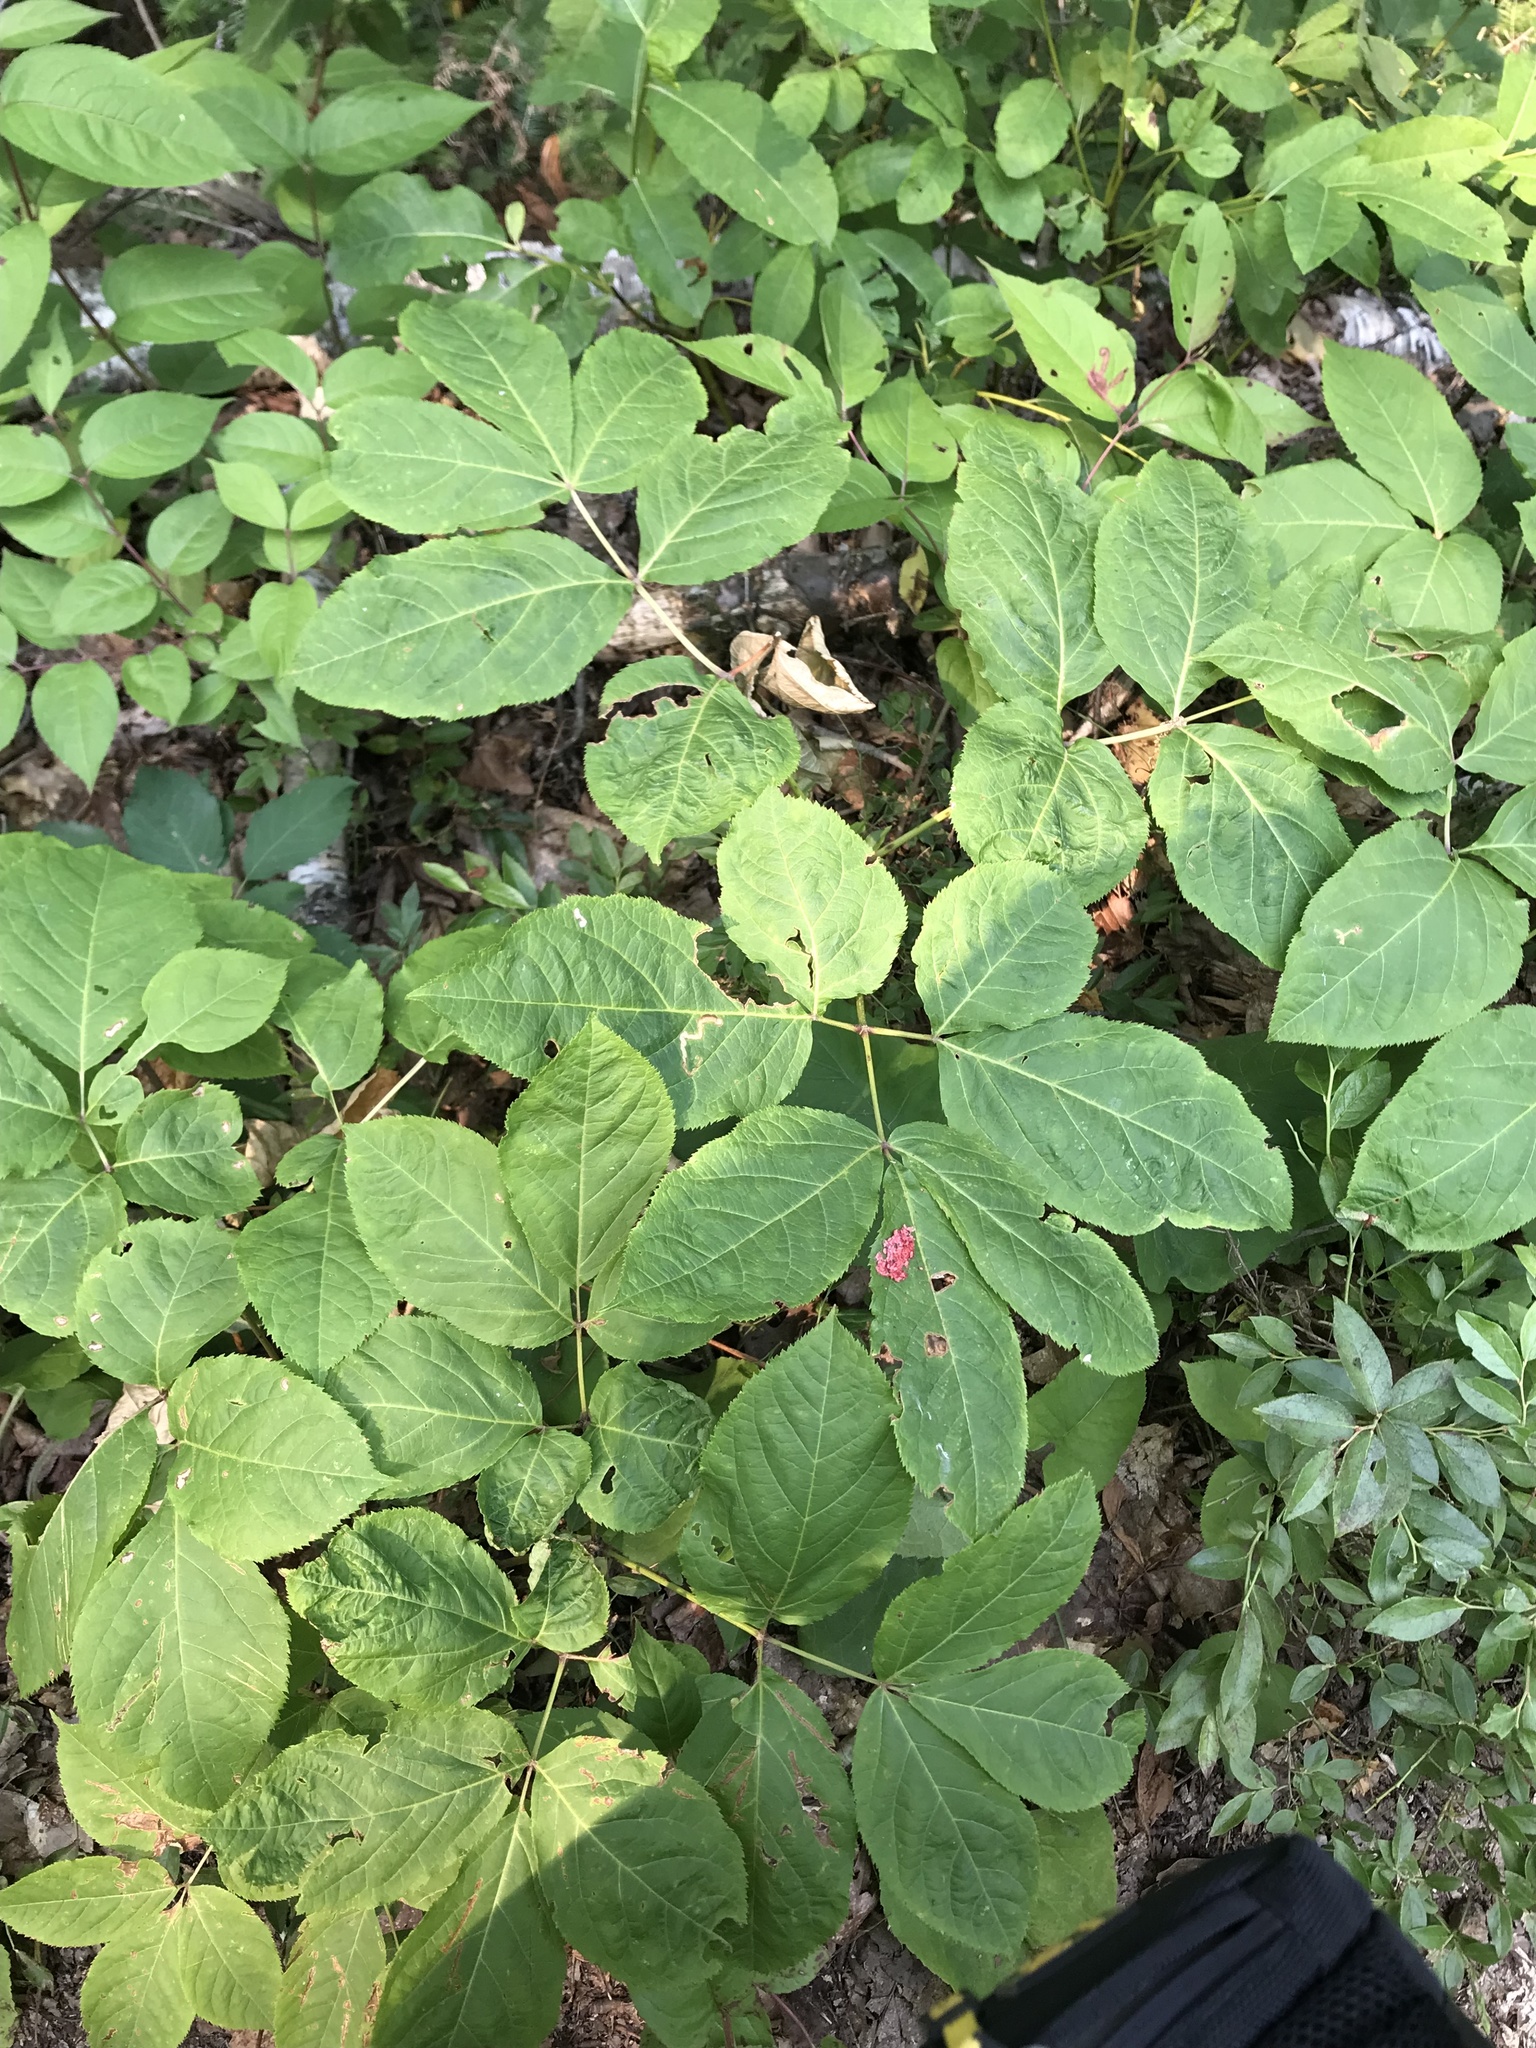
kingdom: Plantae
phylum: Tracheophyta
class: Magnoliopsida
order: Apiales
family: Araliaceae
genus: Aralia
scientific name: Aralia nudicaulis
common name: Wild sarsaparilla
